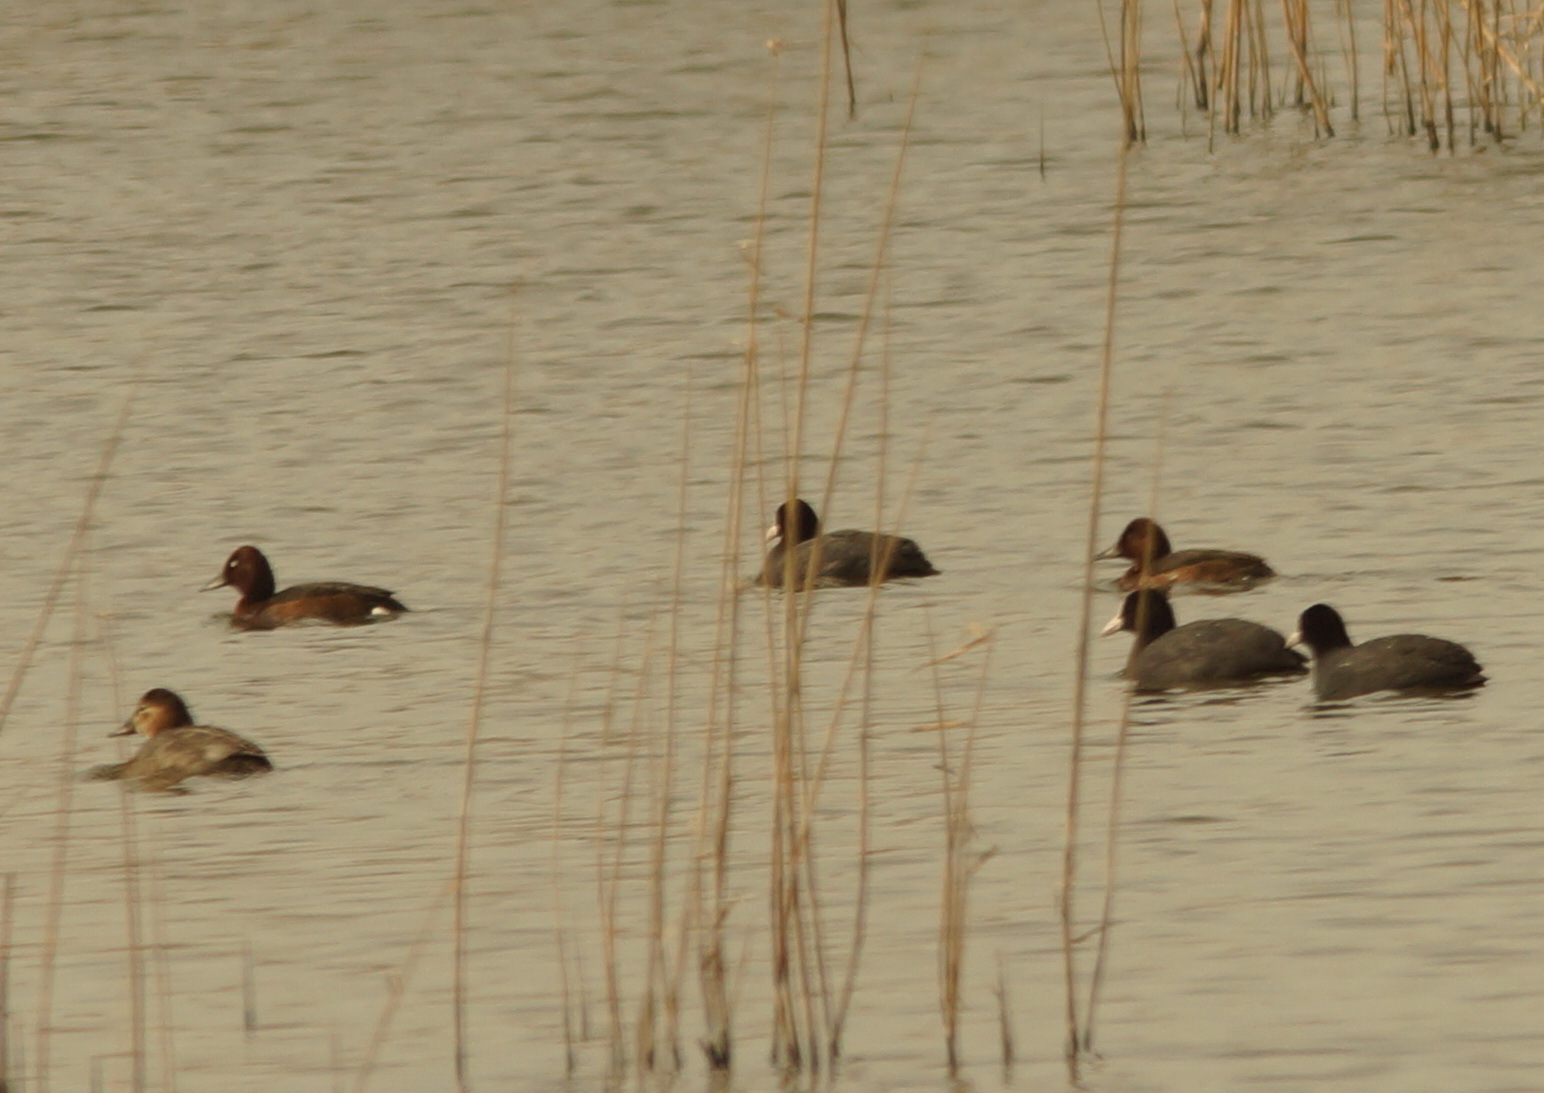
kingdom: Animalia
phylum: Chordata
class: Aves
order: Gruiformes
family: Rallidae
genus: Fulica
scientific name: Fulica atra
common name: Eurasian coot
